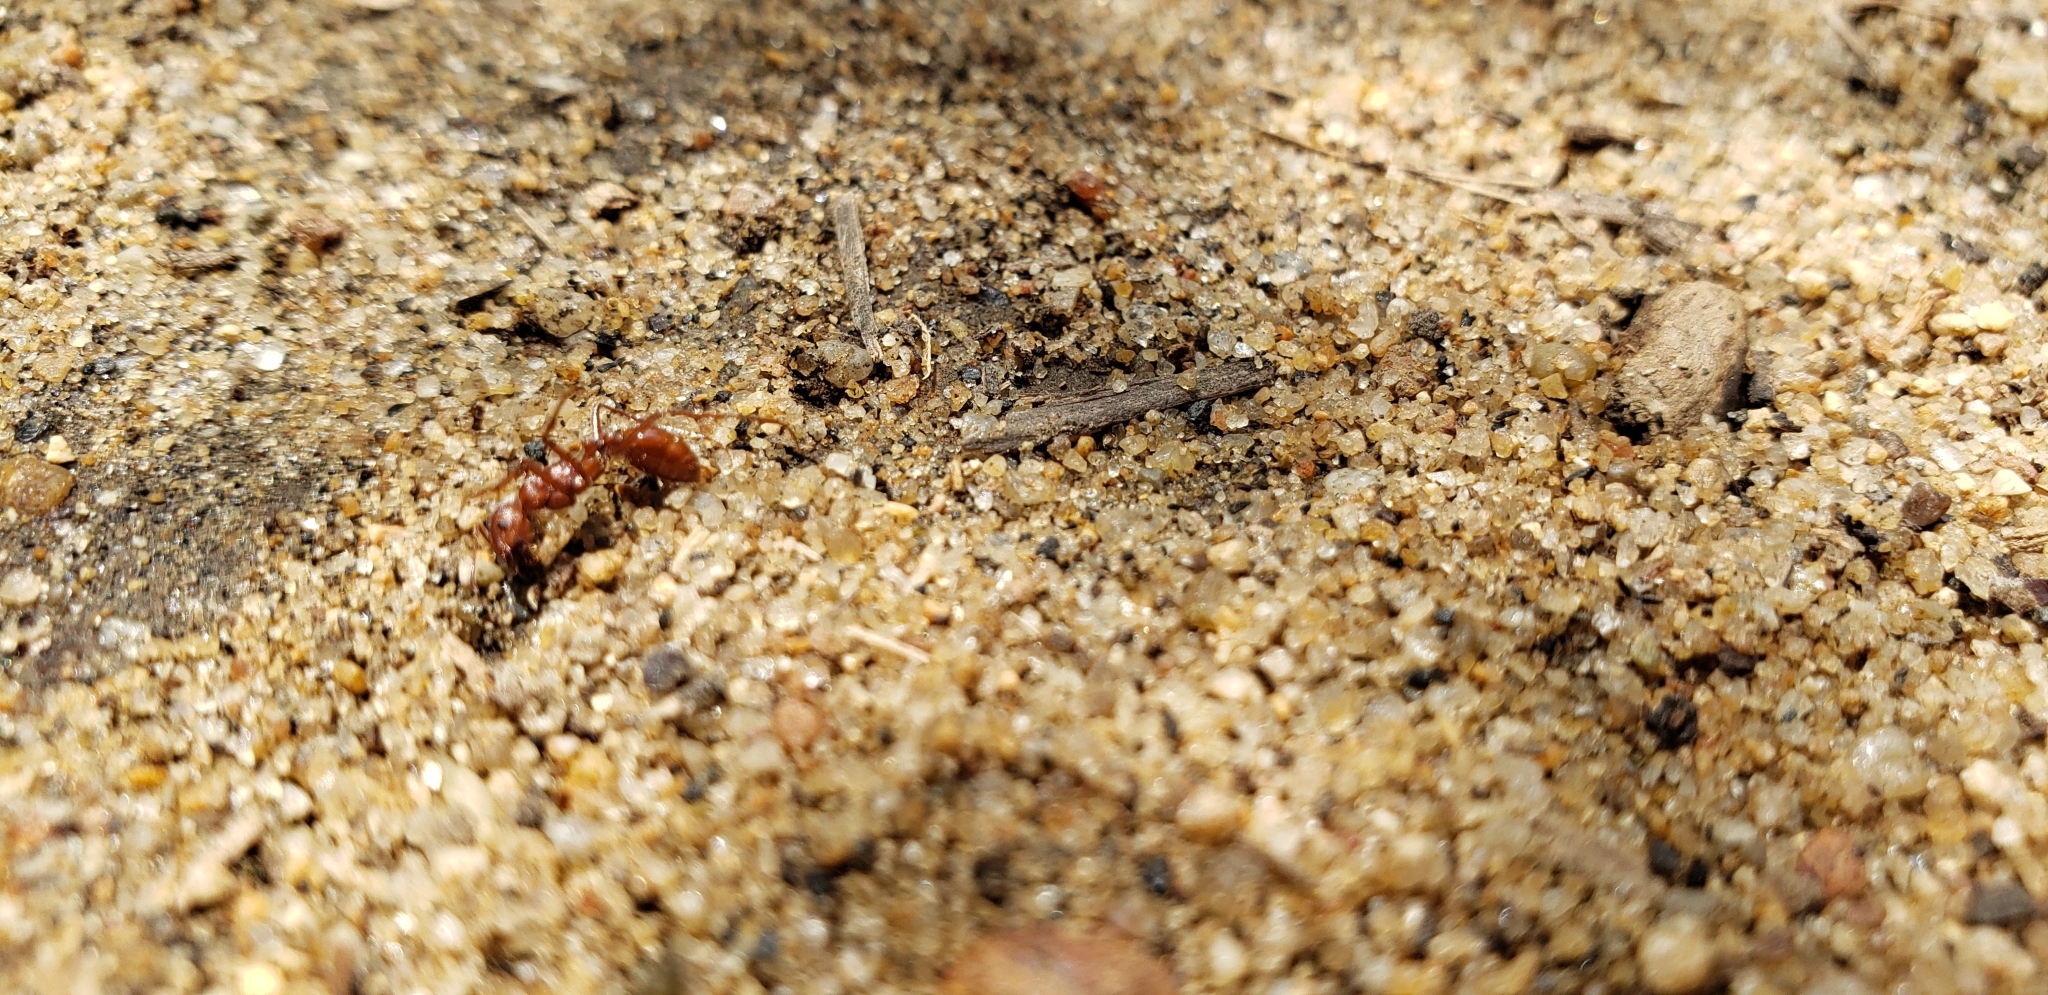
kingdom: Animalia
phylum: Arthropoda
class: Insecta
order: Hymenoptera
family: Formicidae
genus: Pogonomyrmex
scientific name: Pogonomyrmex subnitidus
